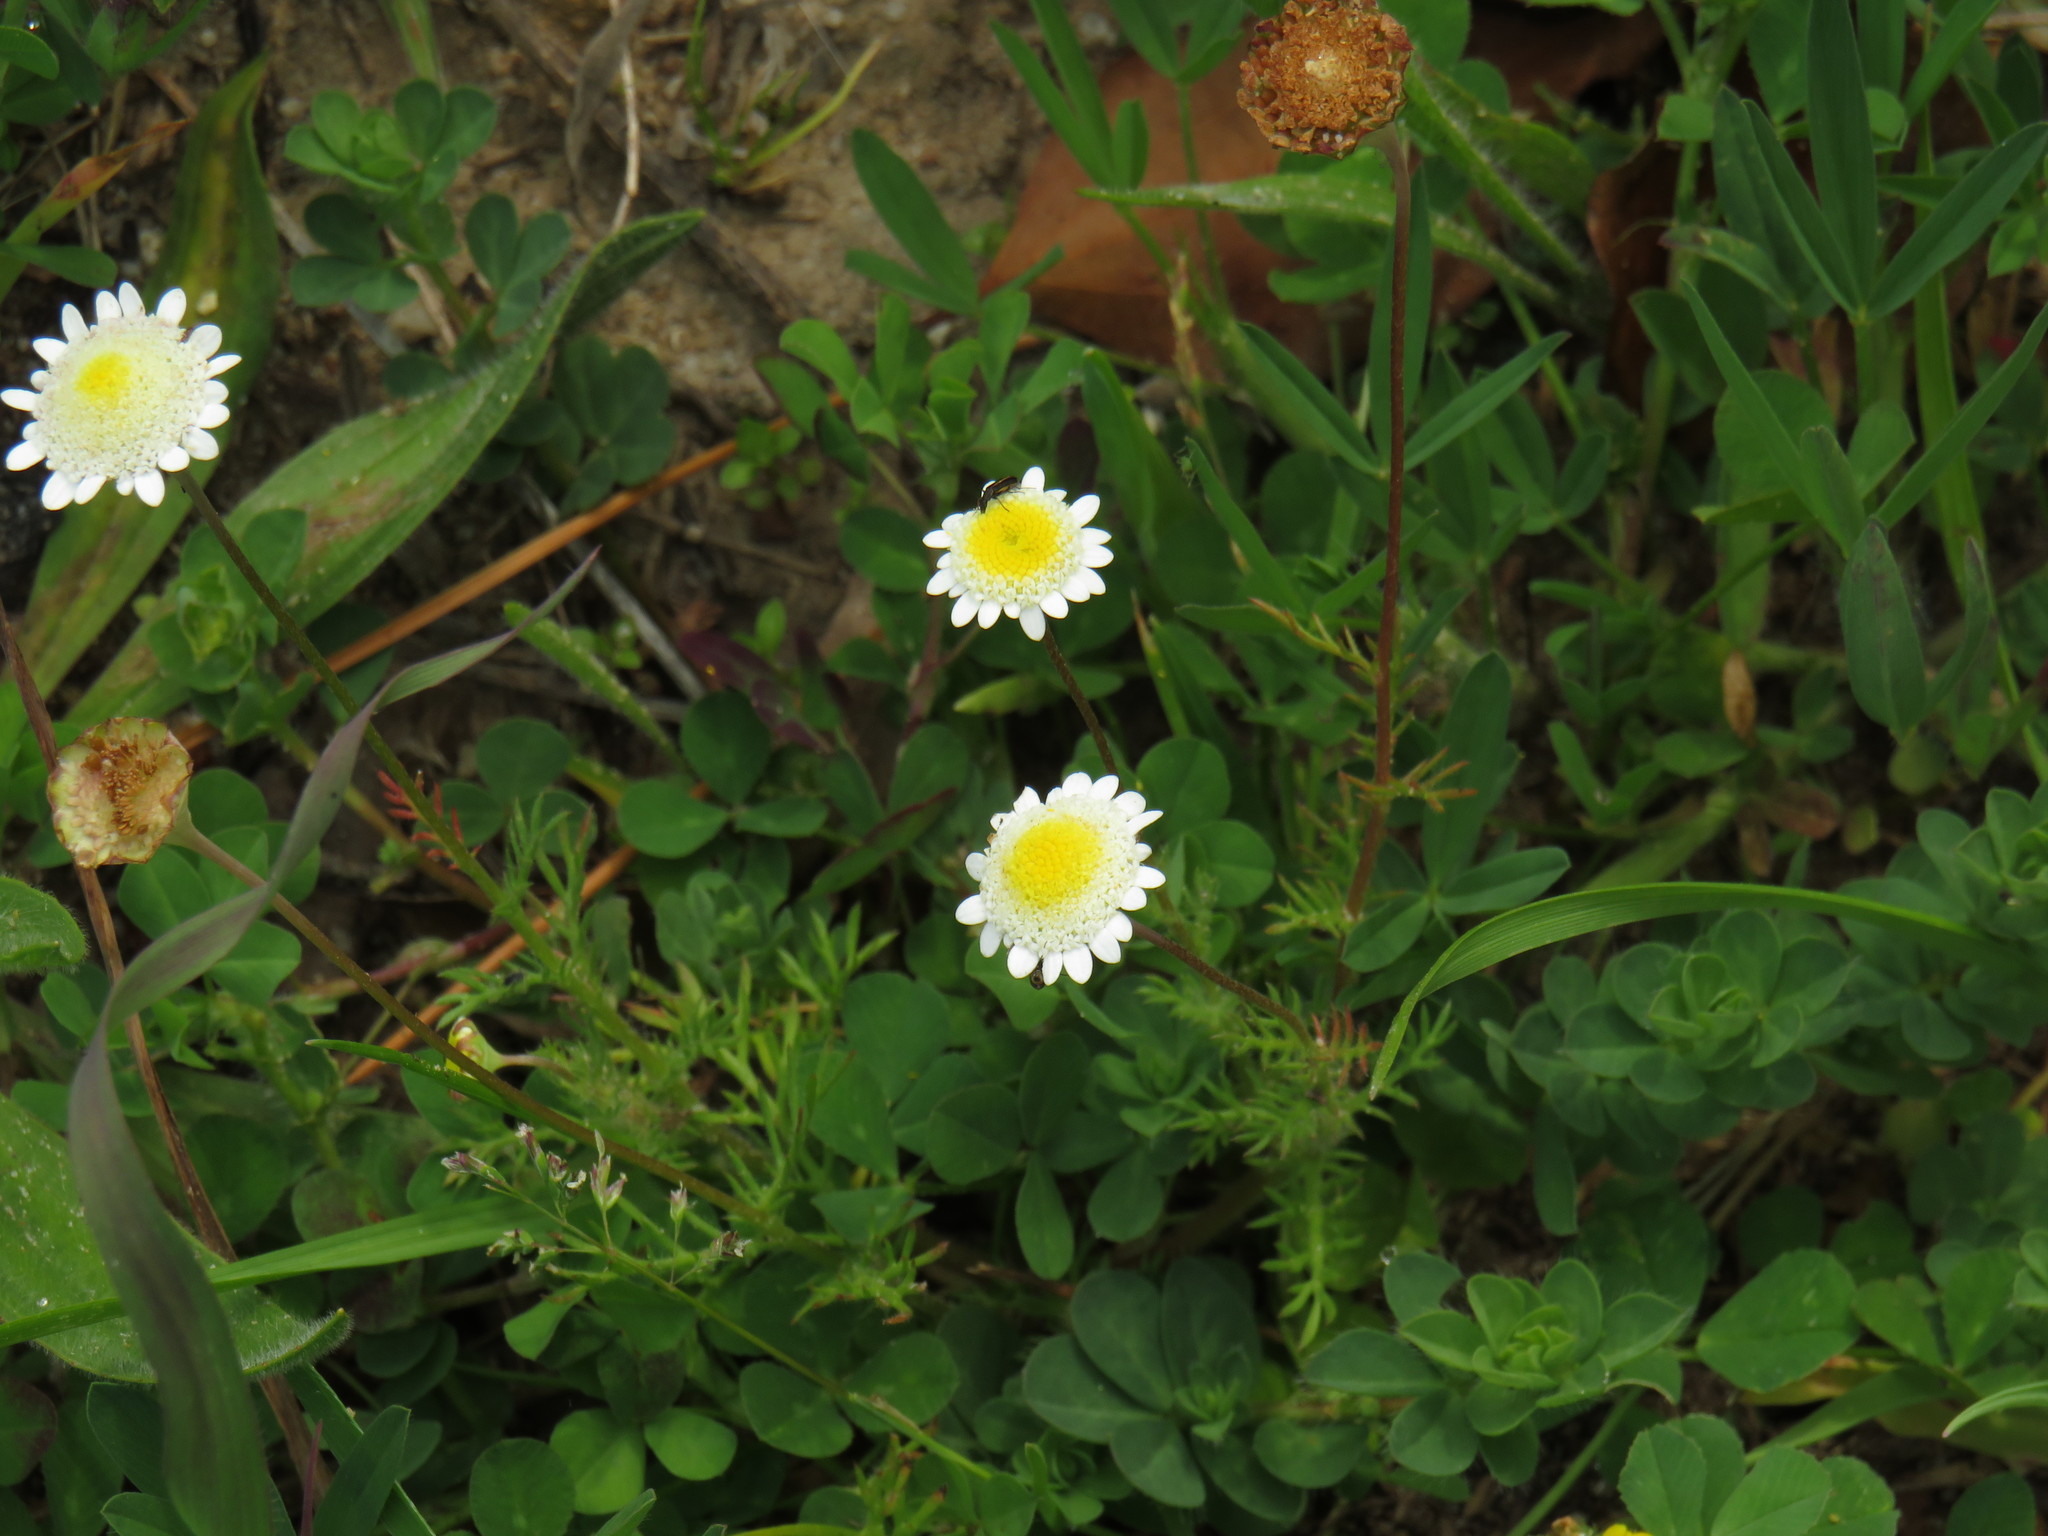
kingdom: Plantae
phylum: Tracheophyta
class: Magnoliopsida
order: Asterales
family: Asteraceae
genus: Cotula
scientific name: Cotula turbinata
